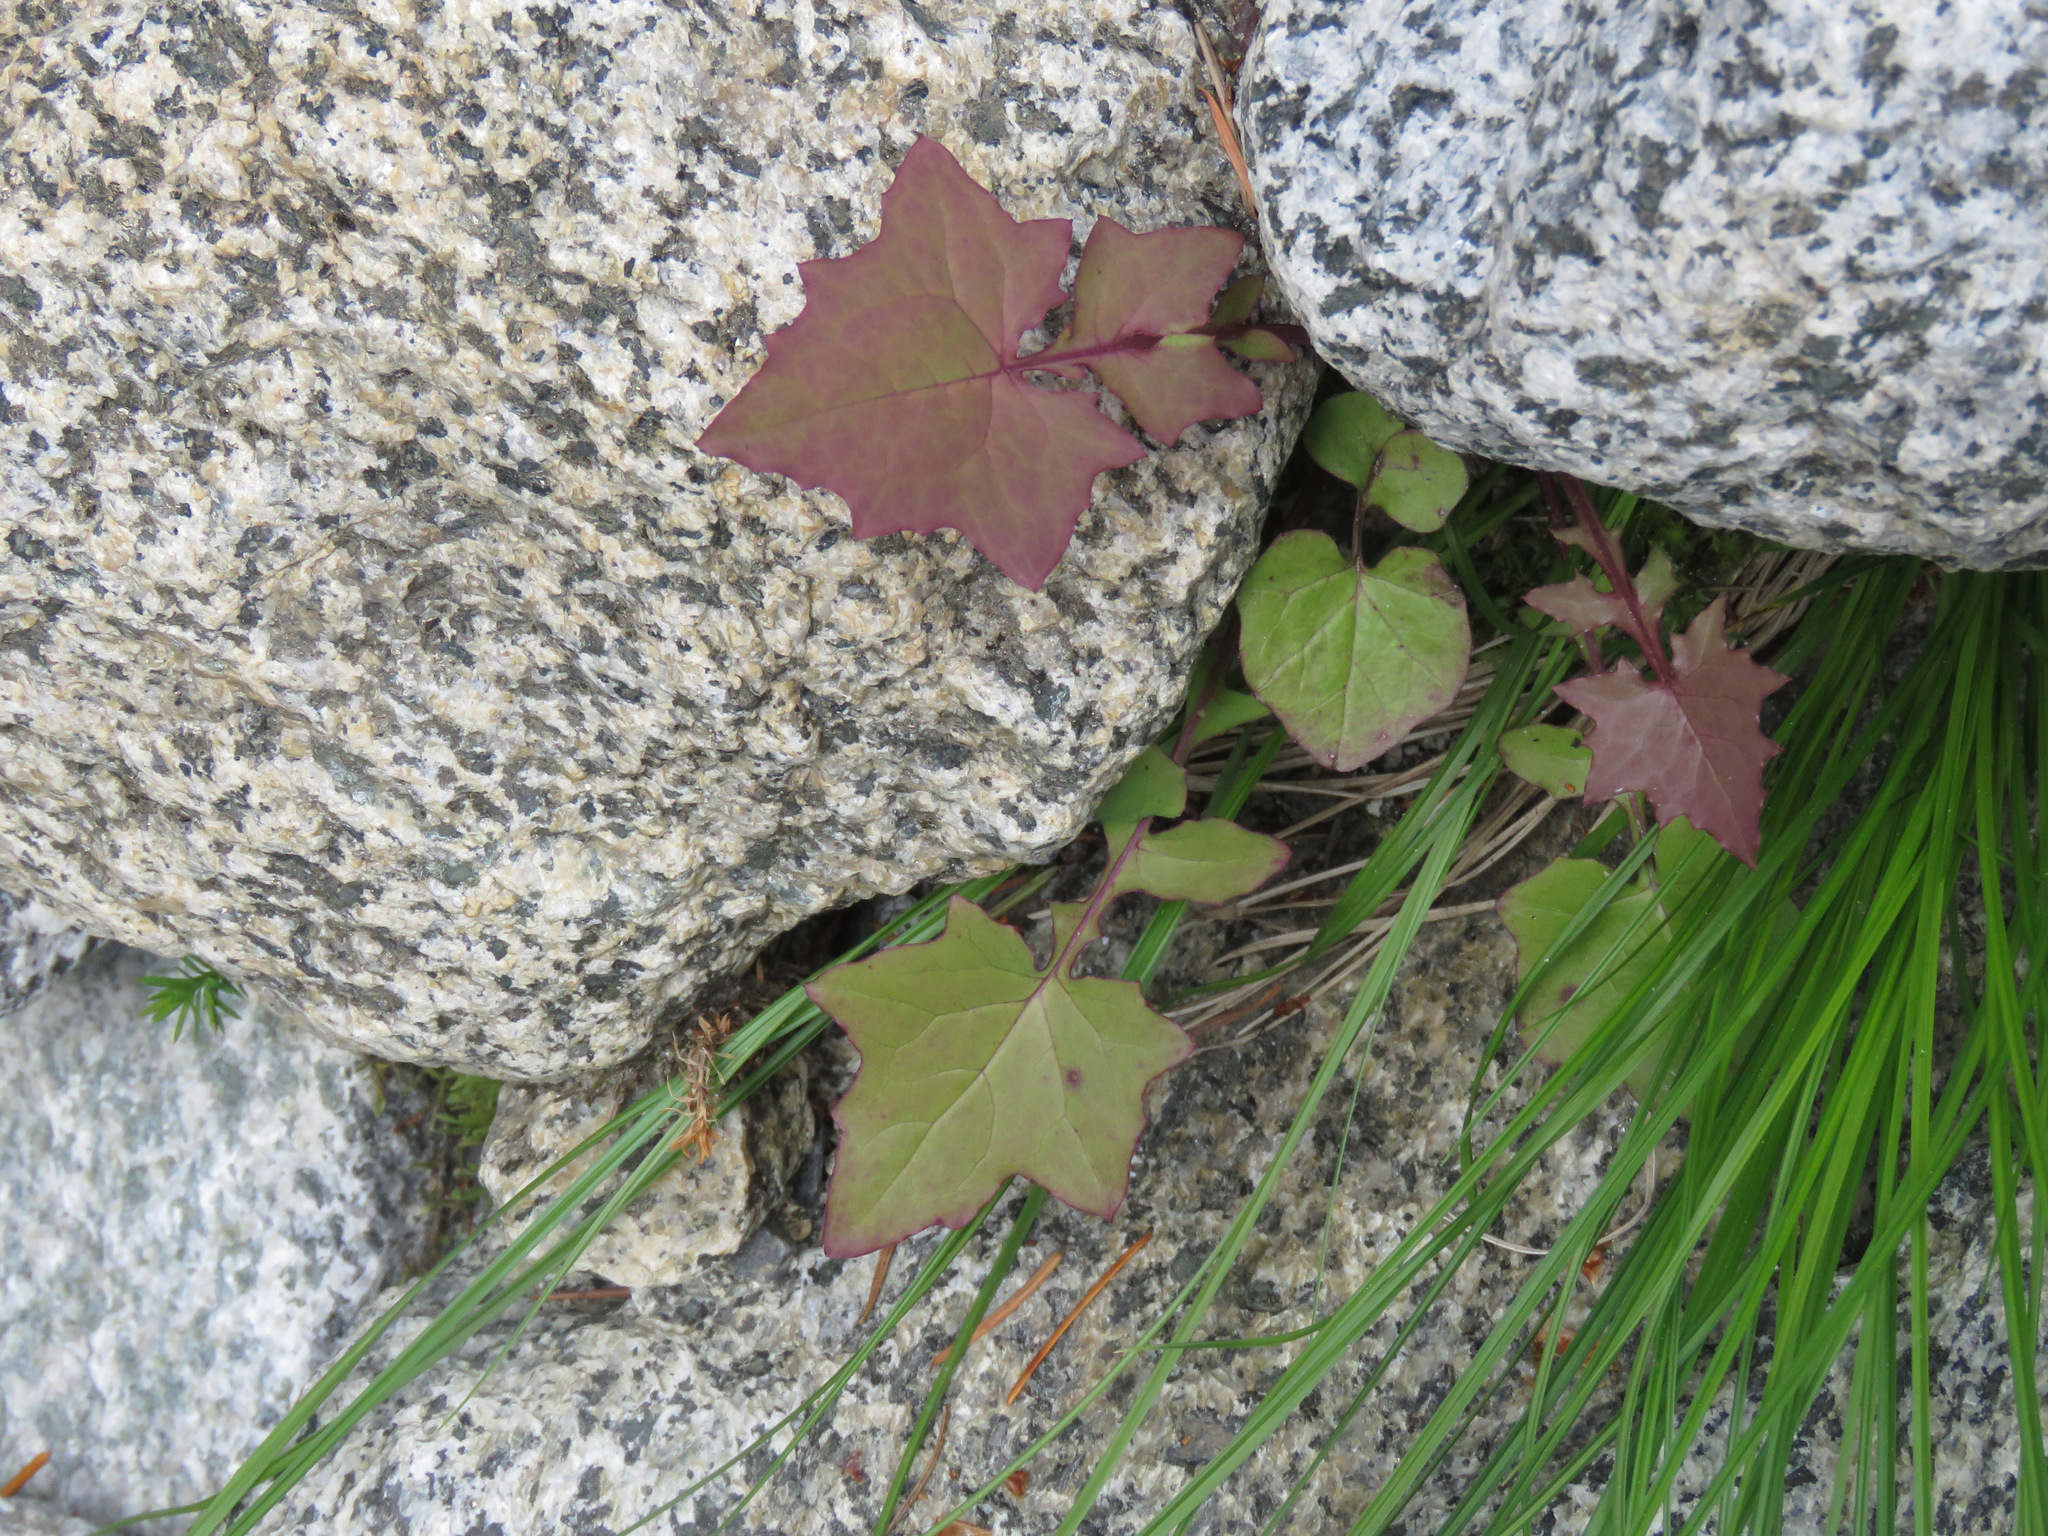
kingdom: Plantae
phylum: Tracheophyta
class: Magnoliopsida
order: Asterales
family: Asteraceae
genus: Mycelis
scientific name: Mycelis muralis
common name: Wall lettuce
